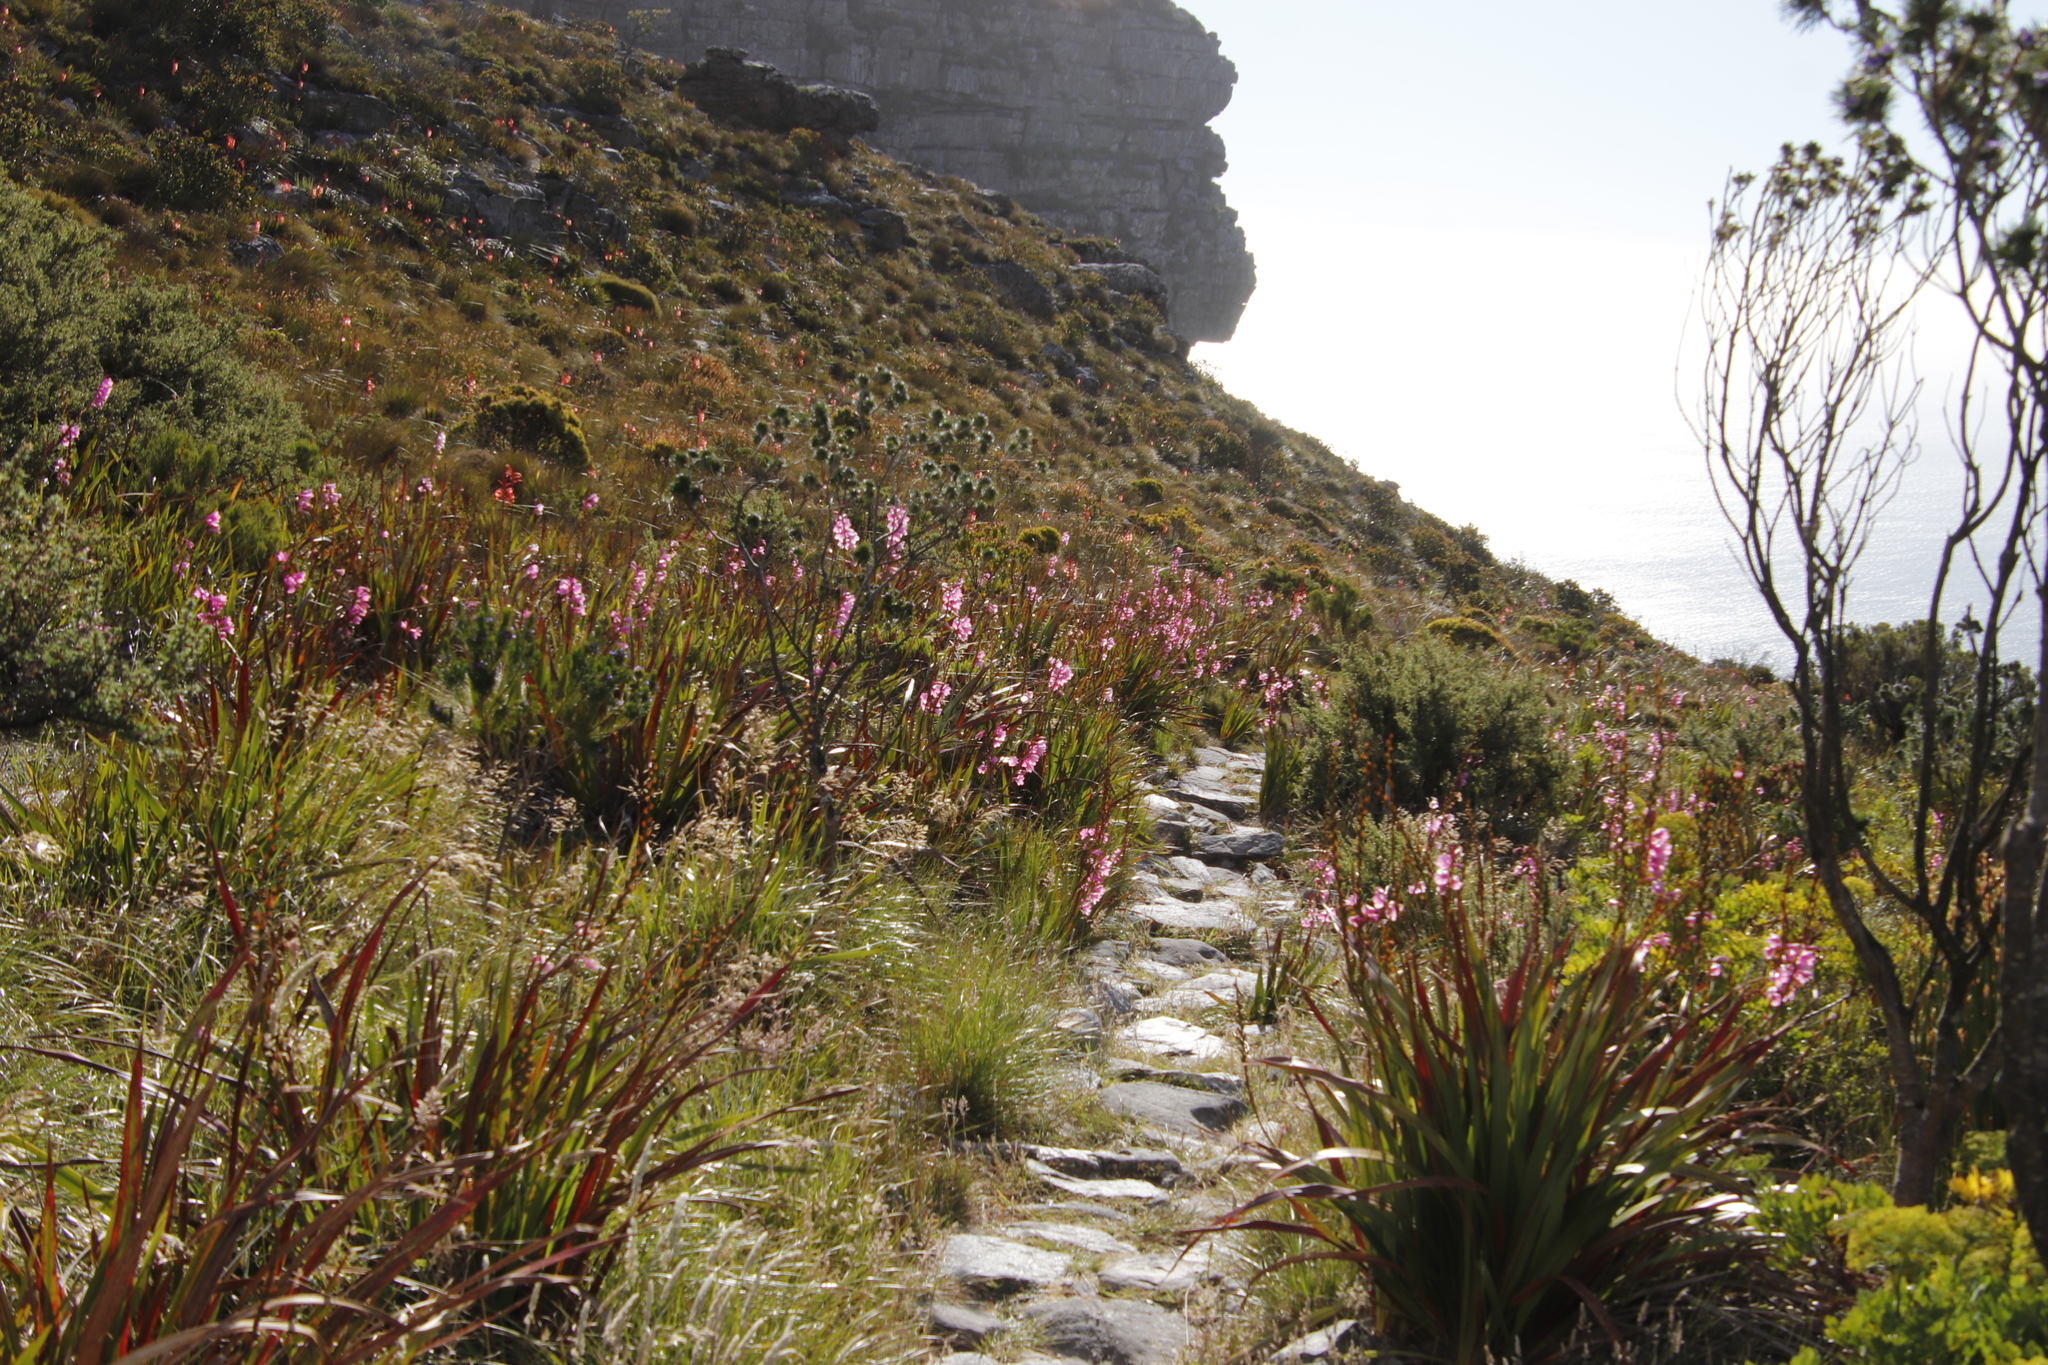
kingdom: Plantae
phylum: Tracheophyta
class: Liliopsida
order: Asparagales
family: Iridaceae
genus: Watsonia
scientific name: Watsonia borbonica
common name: Bugle-lily
